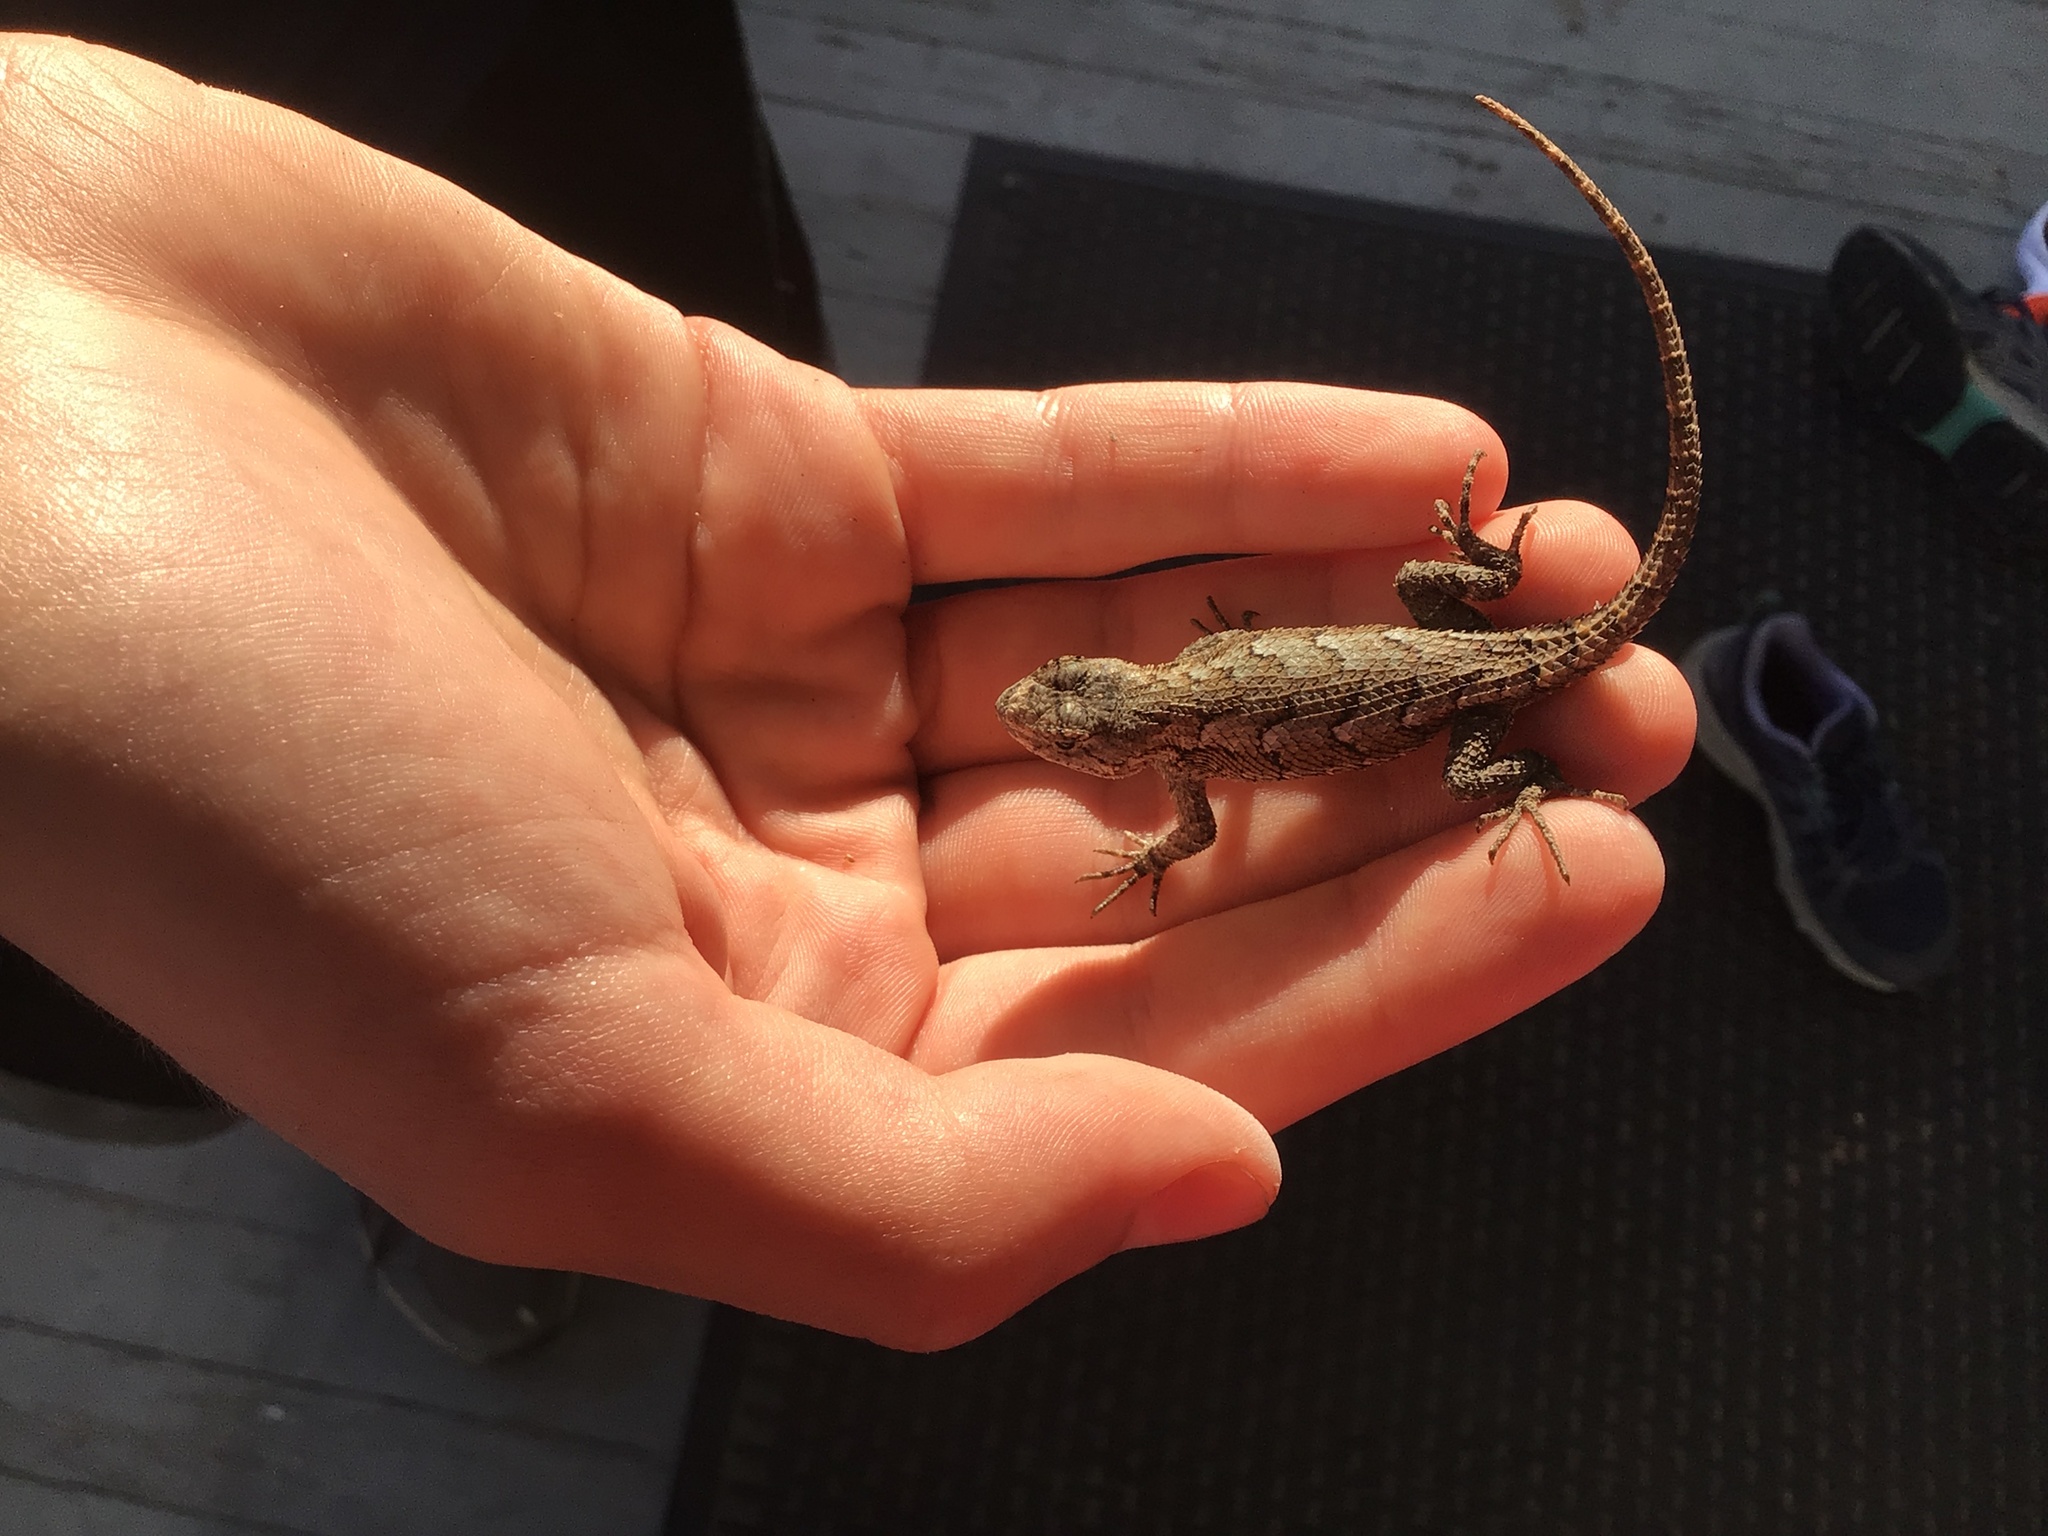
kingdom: Animalia
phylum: Chordata
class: Squamata
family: Phrynosomatidae
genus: Sceloporus
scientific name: Sceloporus undulatus
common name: Eastern fence lizard
